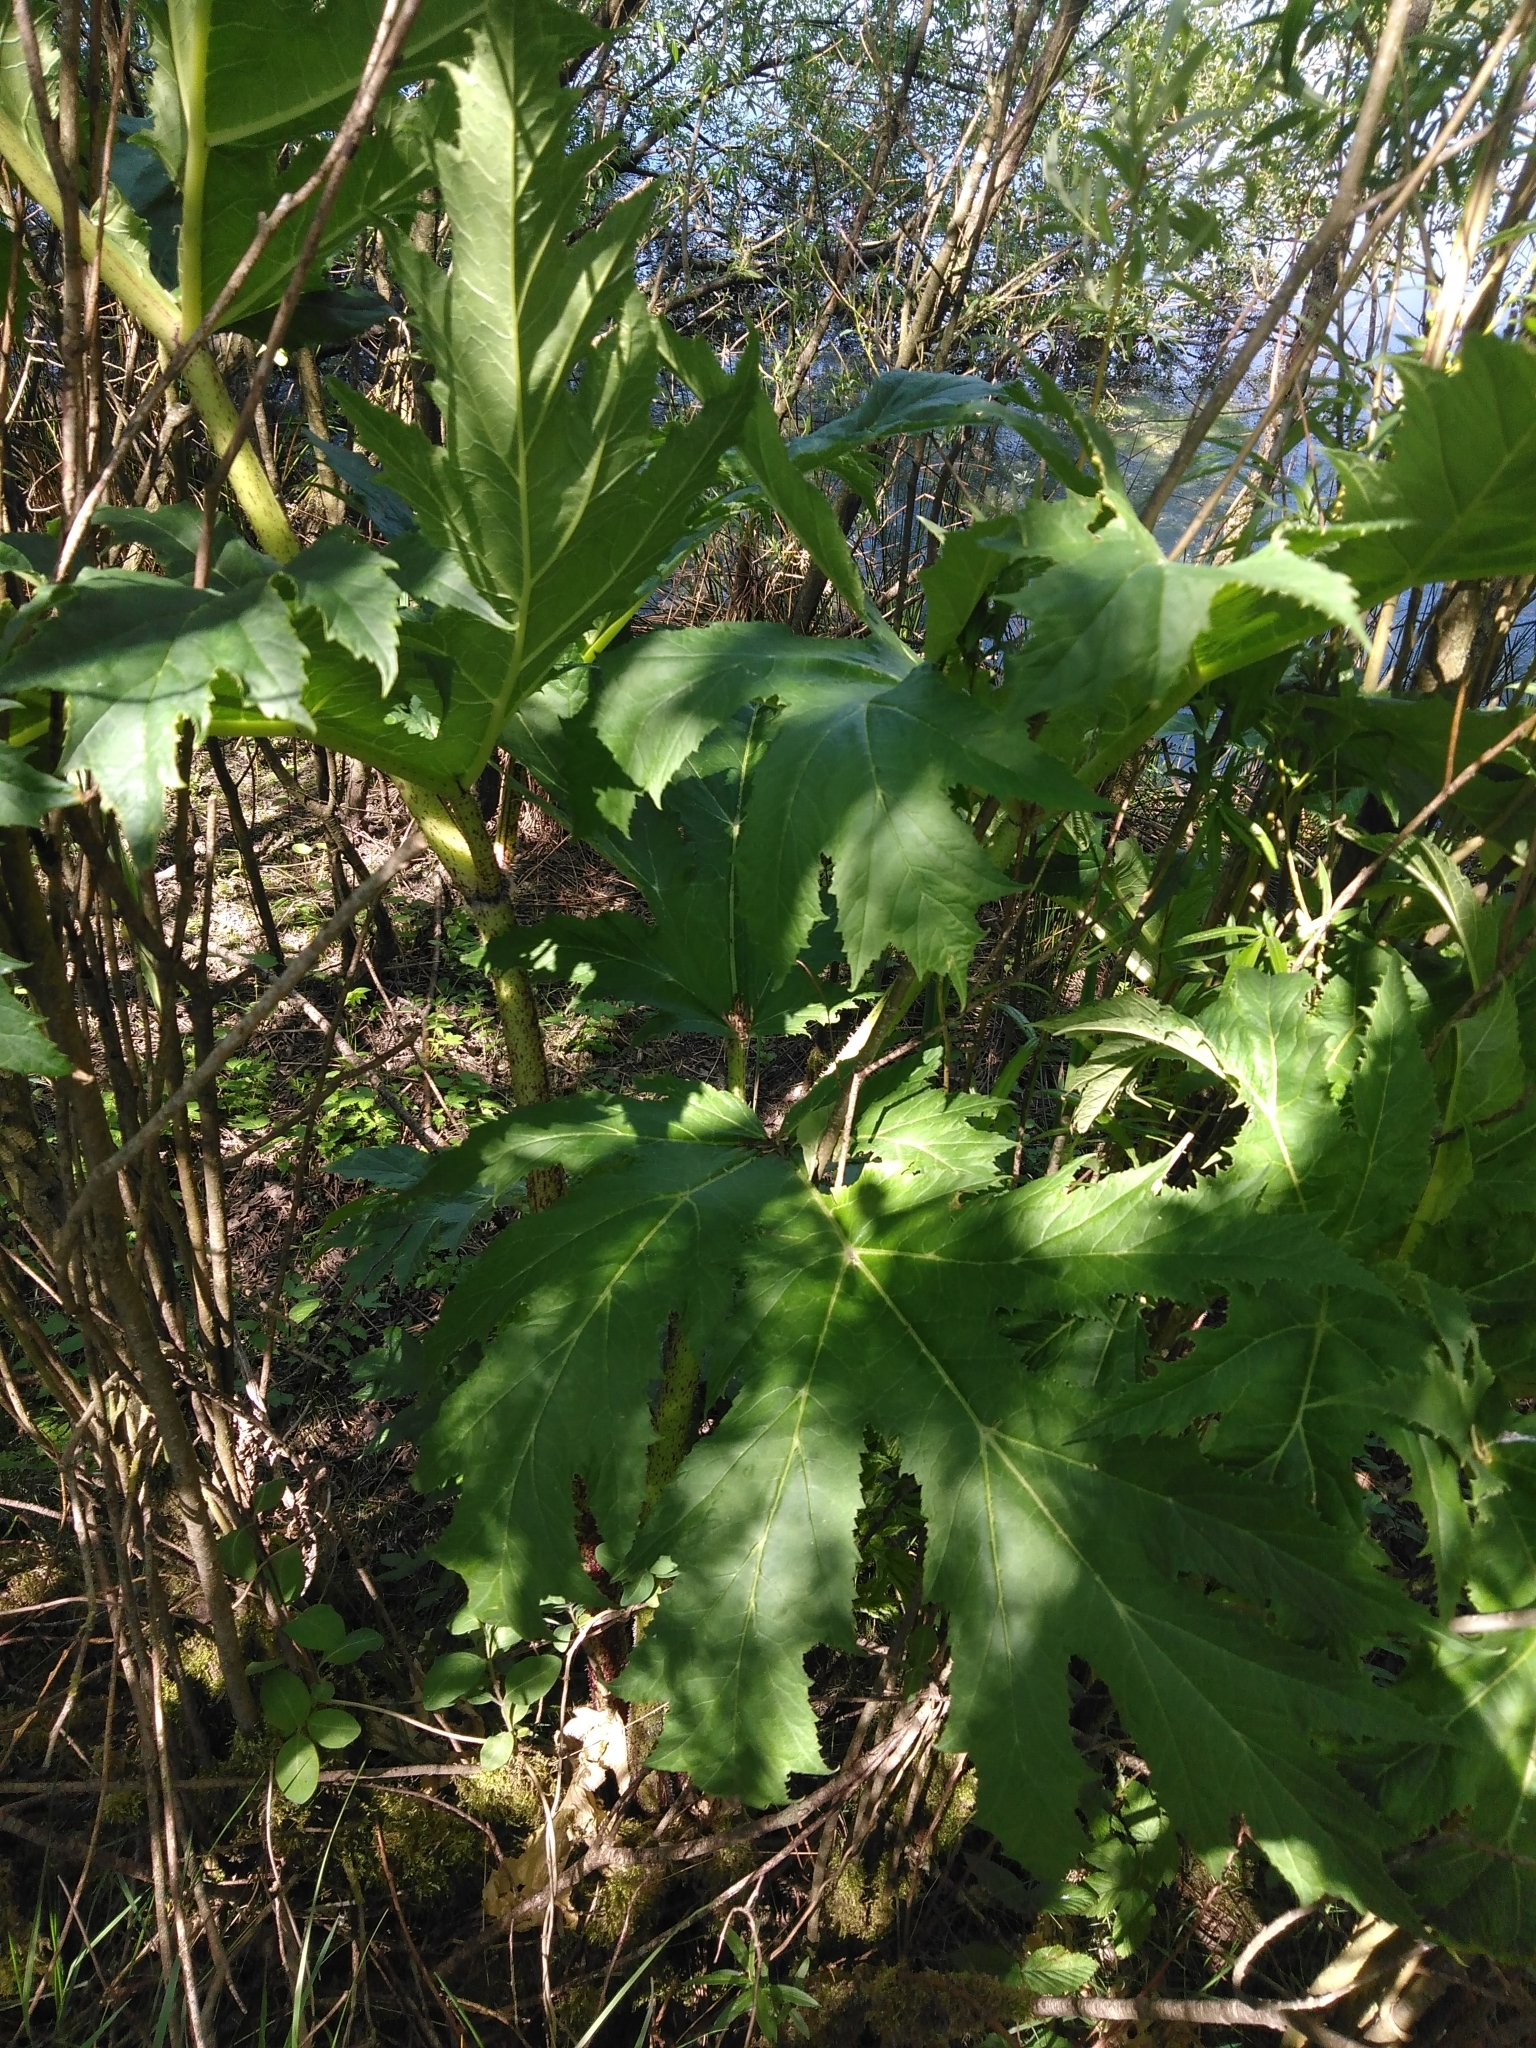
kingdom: Plantae
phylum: Tracheophyta
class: Magnoliopsida
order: Apiales
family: Apiaceae
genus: Heracleum
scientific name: Heracleum mantegazzianum
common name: Giant hogweed
